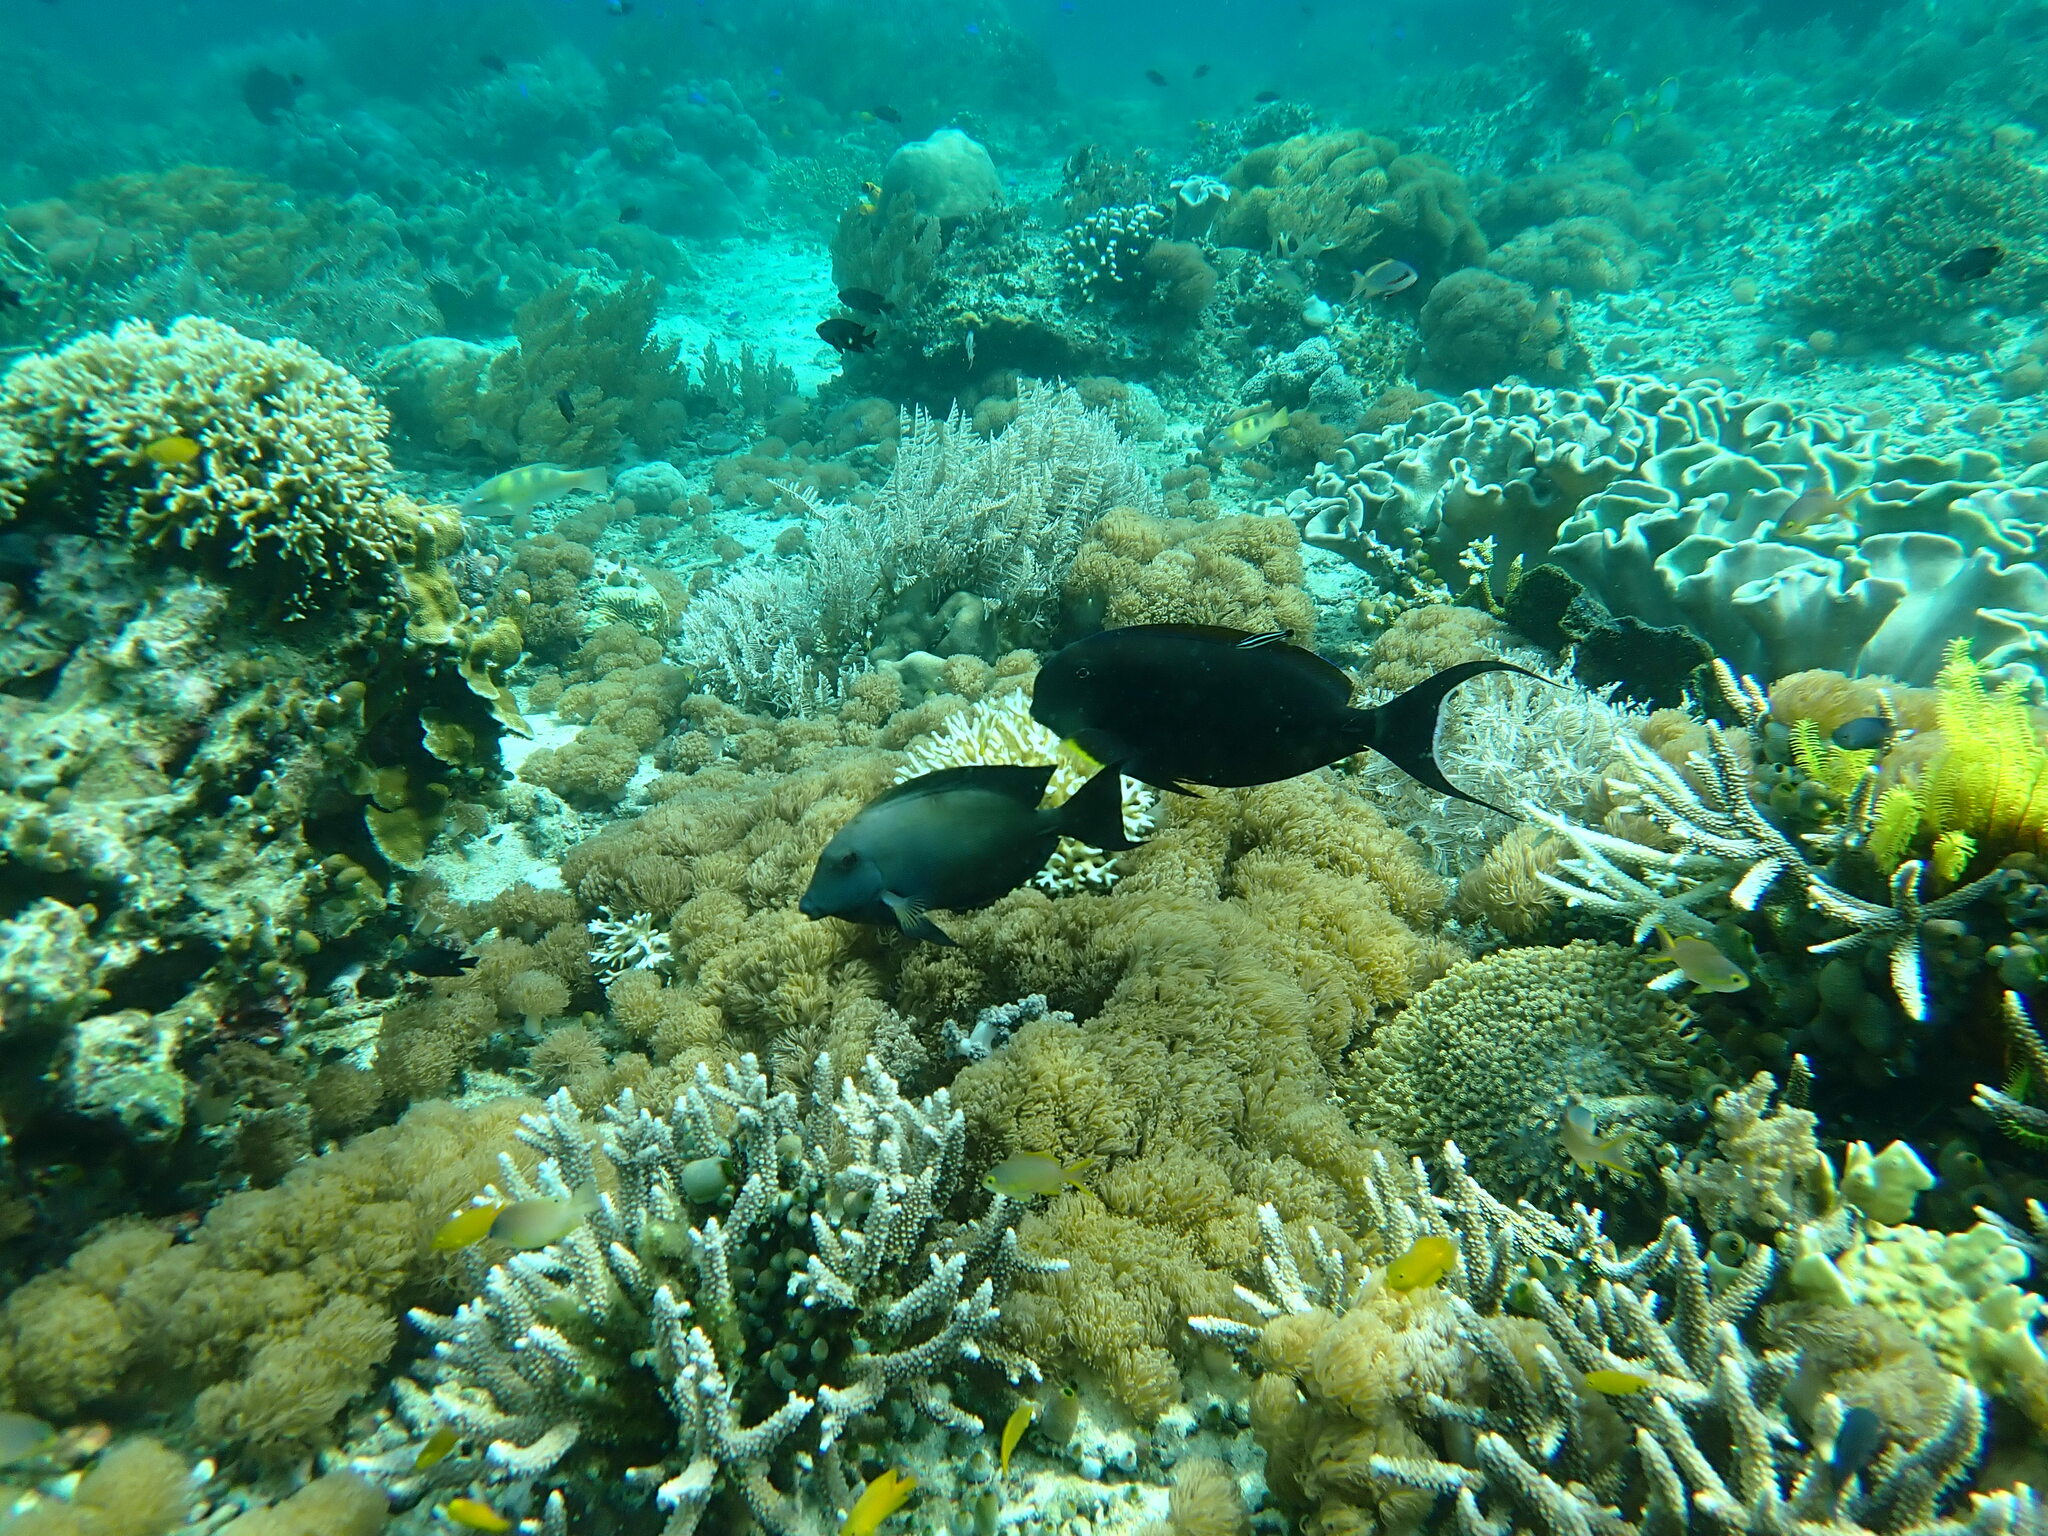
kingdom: Animalia
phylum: Chordata
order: Perciformes
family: Acanthuridae
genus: Ctenochaetus
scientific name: Ctenochaetus striatus
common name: Bristle-toothed surgeonfish
